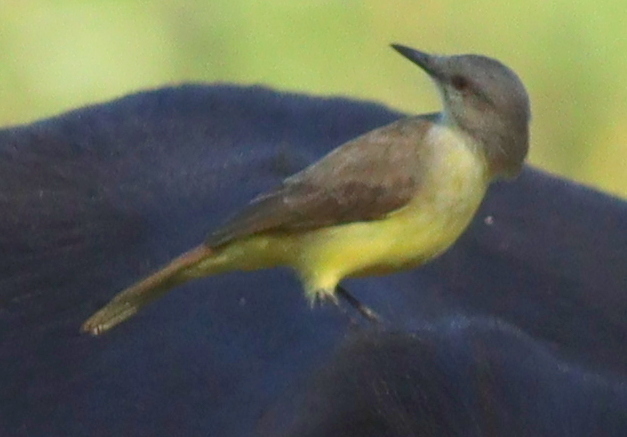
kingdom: Animalia
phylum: Chordata
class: Aves
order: Passeriformes
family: Tyrannidae
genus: Machetornis
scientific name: Machetornis rixosa
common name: Cattle tyrant
